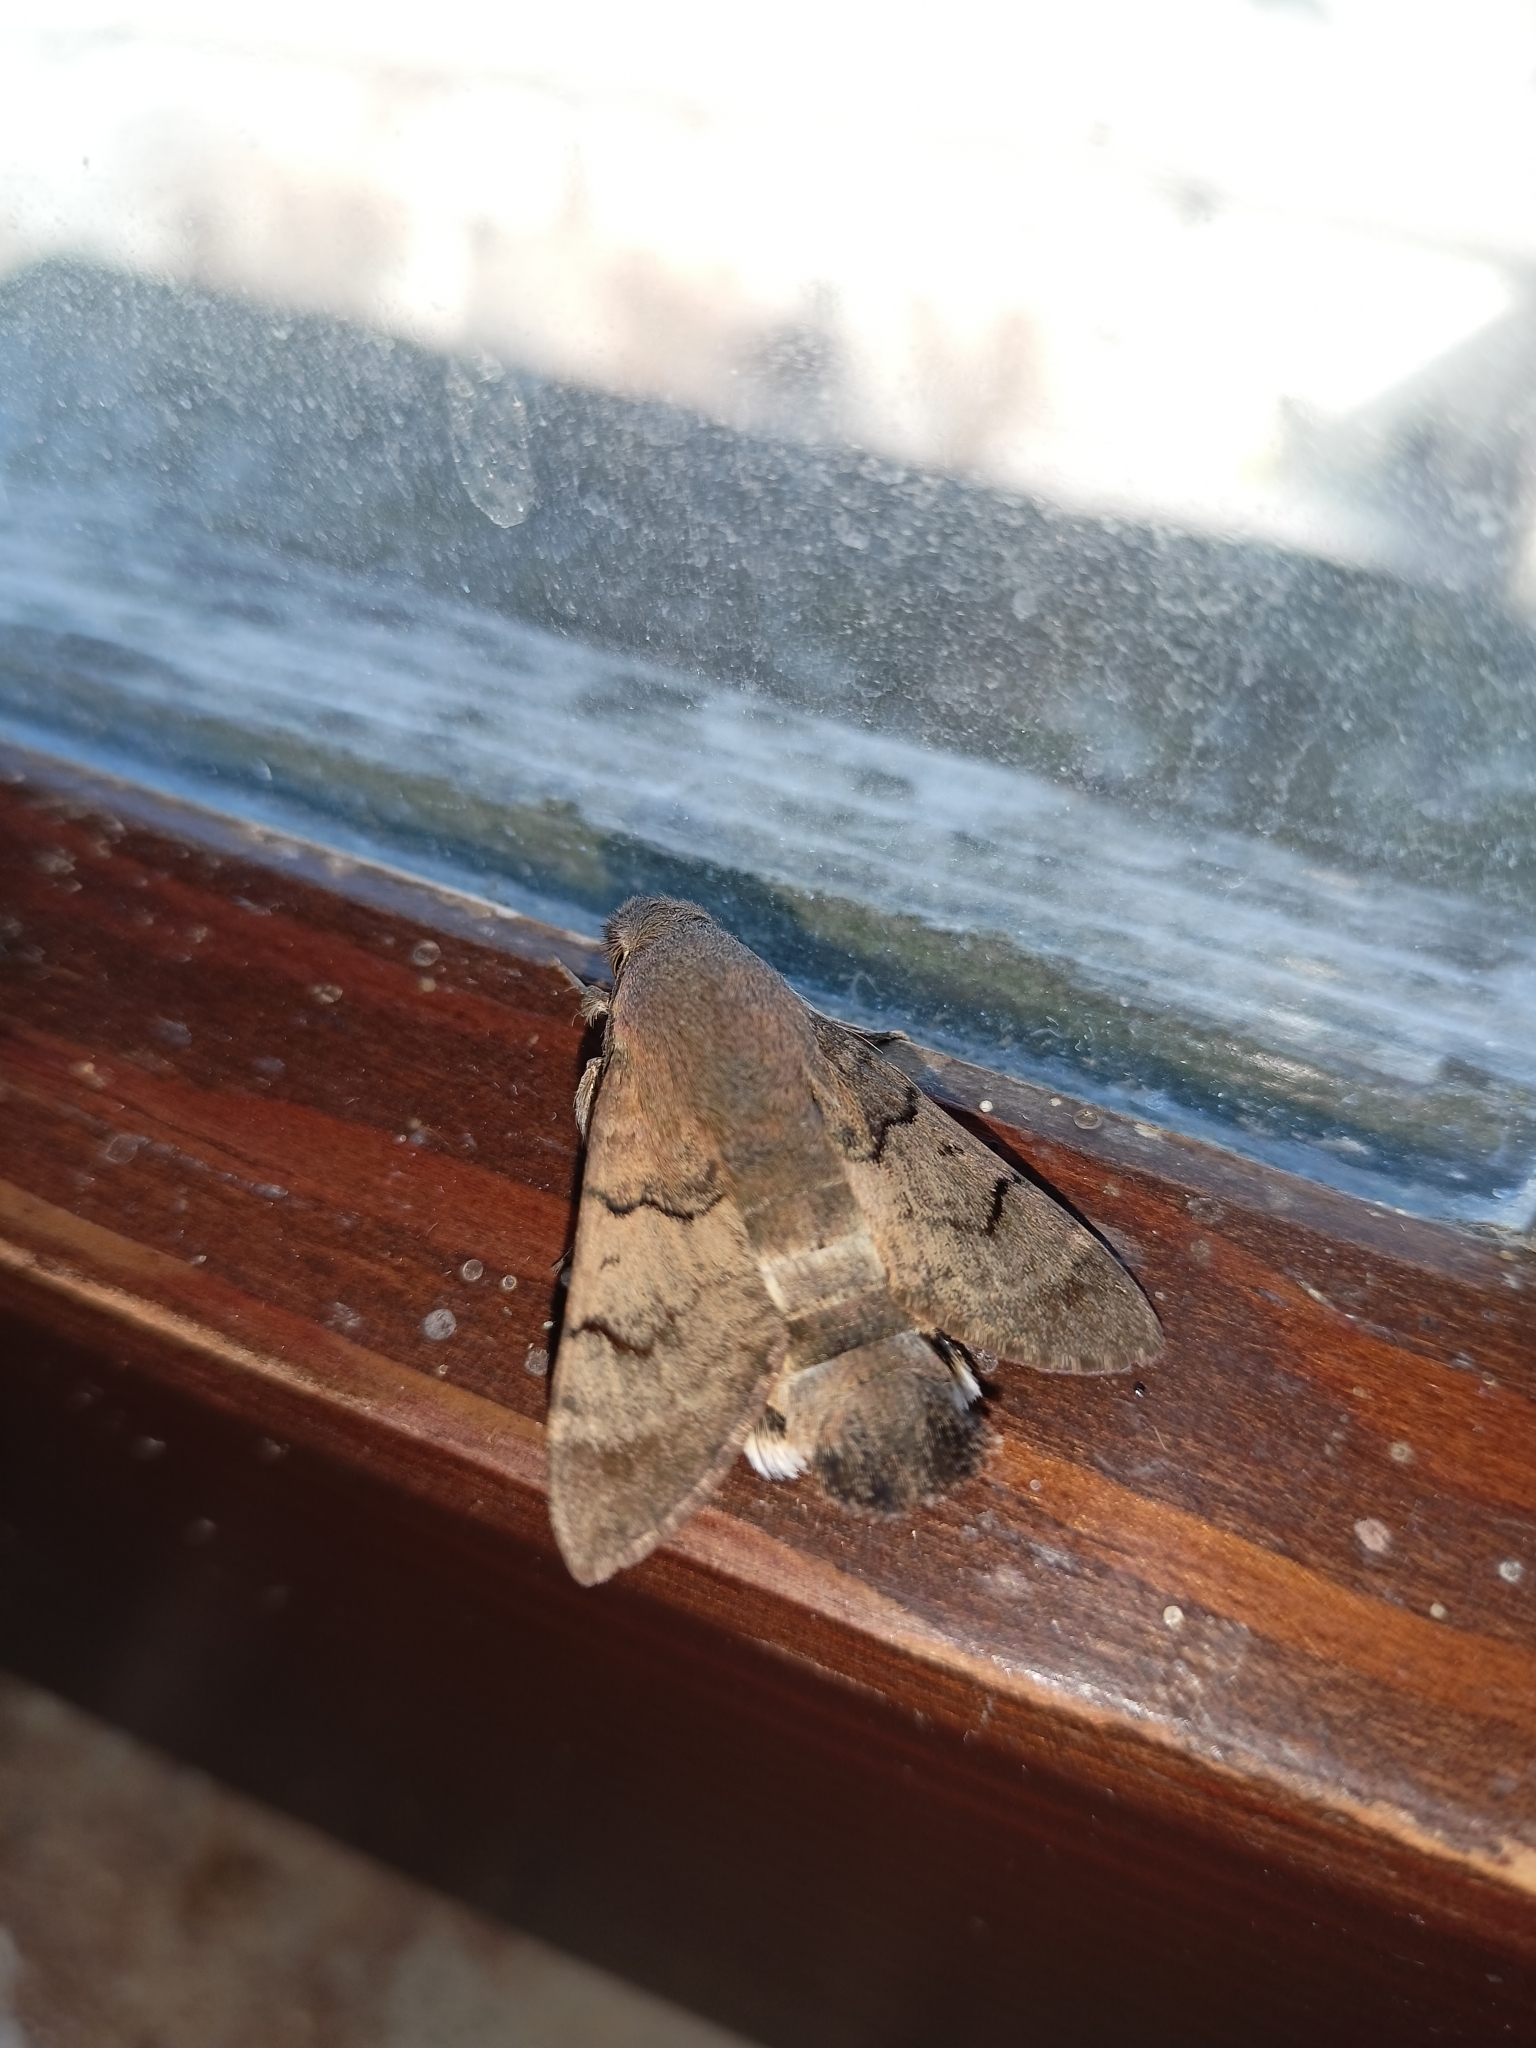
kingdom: Animalia
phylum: Arthropoda
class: Insecta
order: Lepidoptera
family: Sphingidae
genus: Macroglossum
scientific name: Macroglossum stellatarum
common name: Humming-bird hawk-moth
